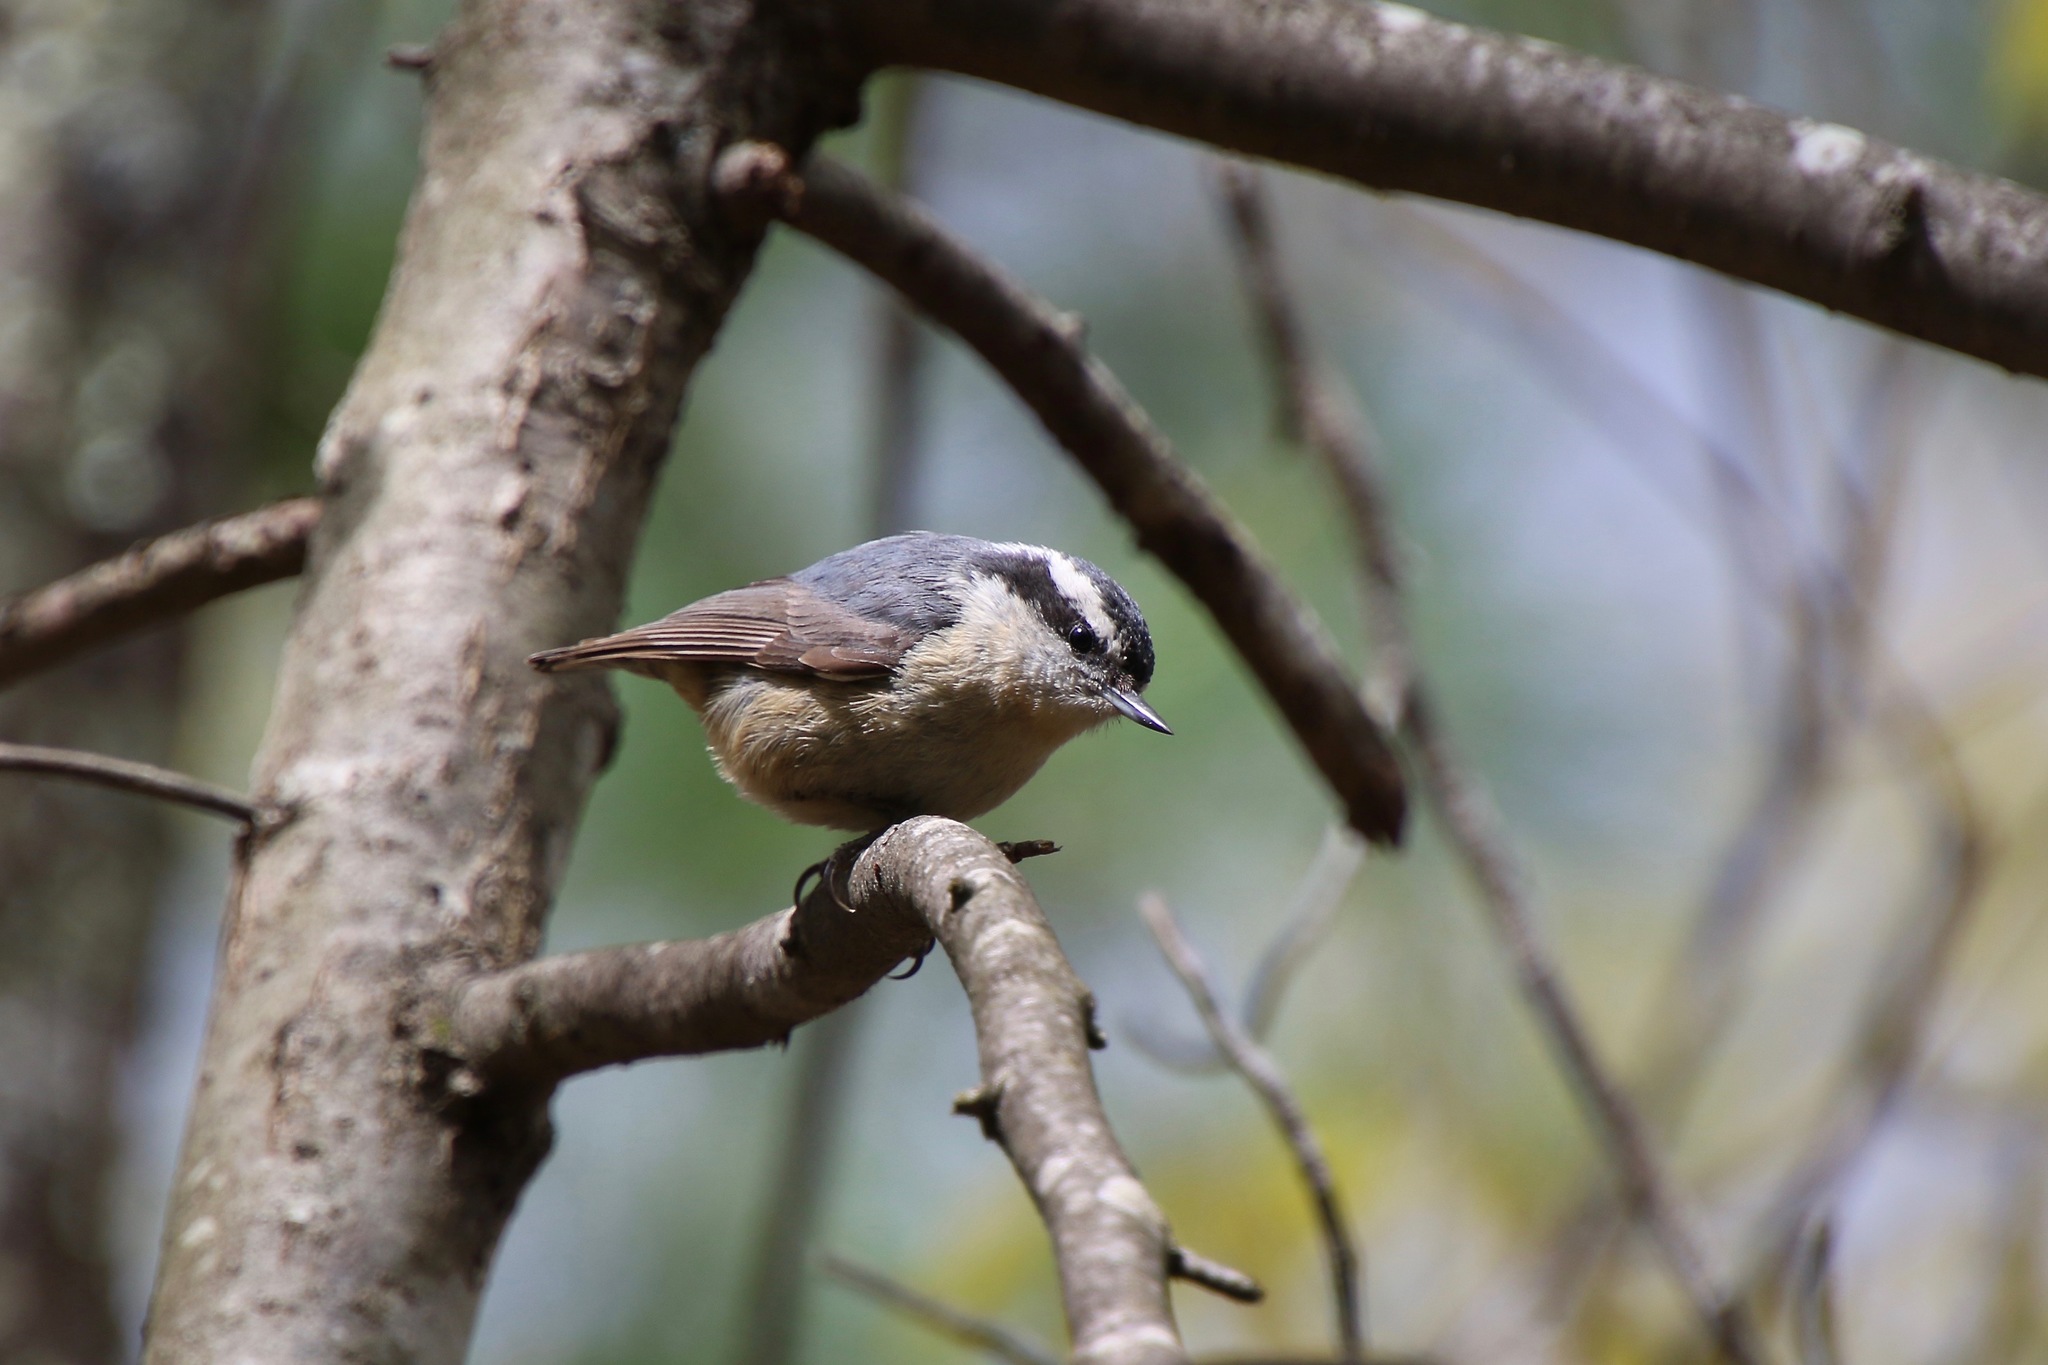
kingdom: Animalia
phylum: Chordata
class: Aves
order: Passeriformes
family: Sittidae
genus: Sitta
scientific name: Sitta canadensis
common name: Red-breasted nuthatch
